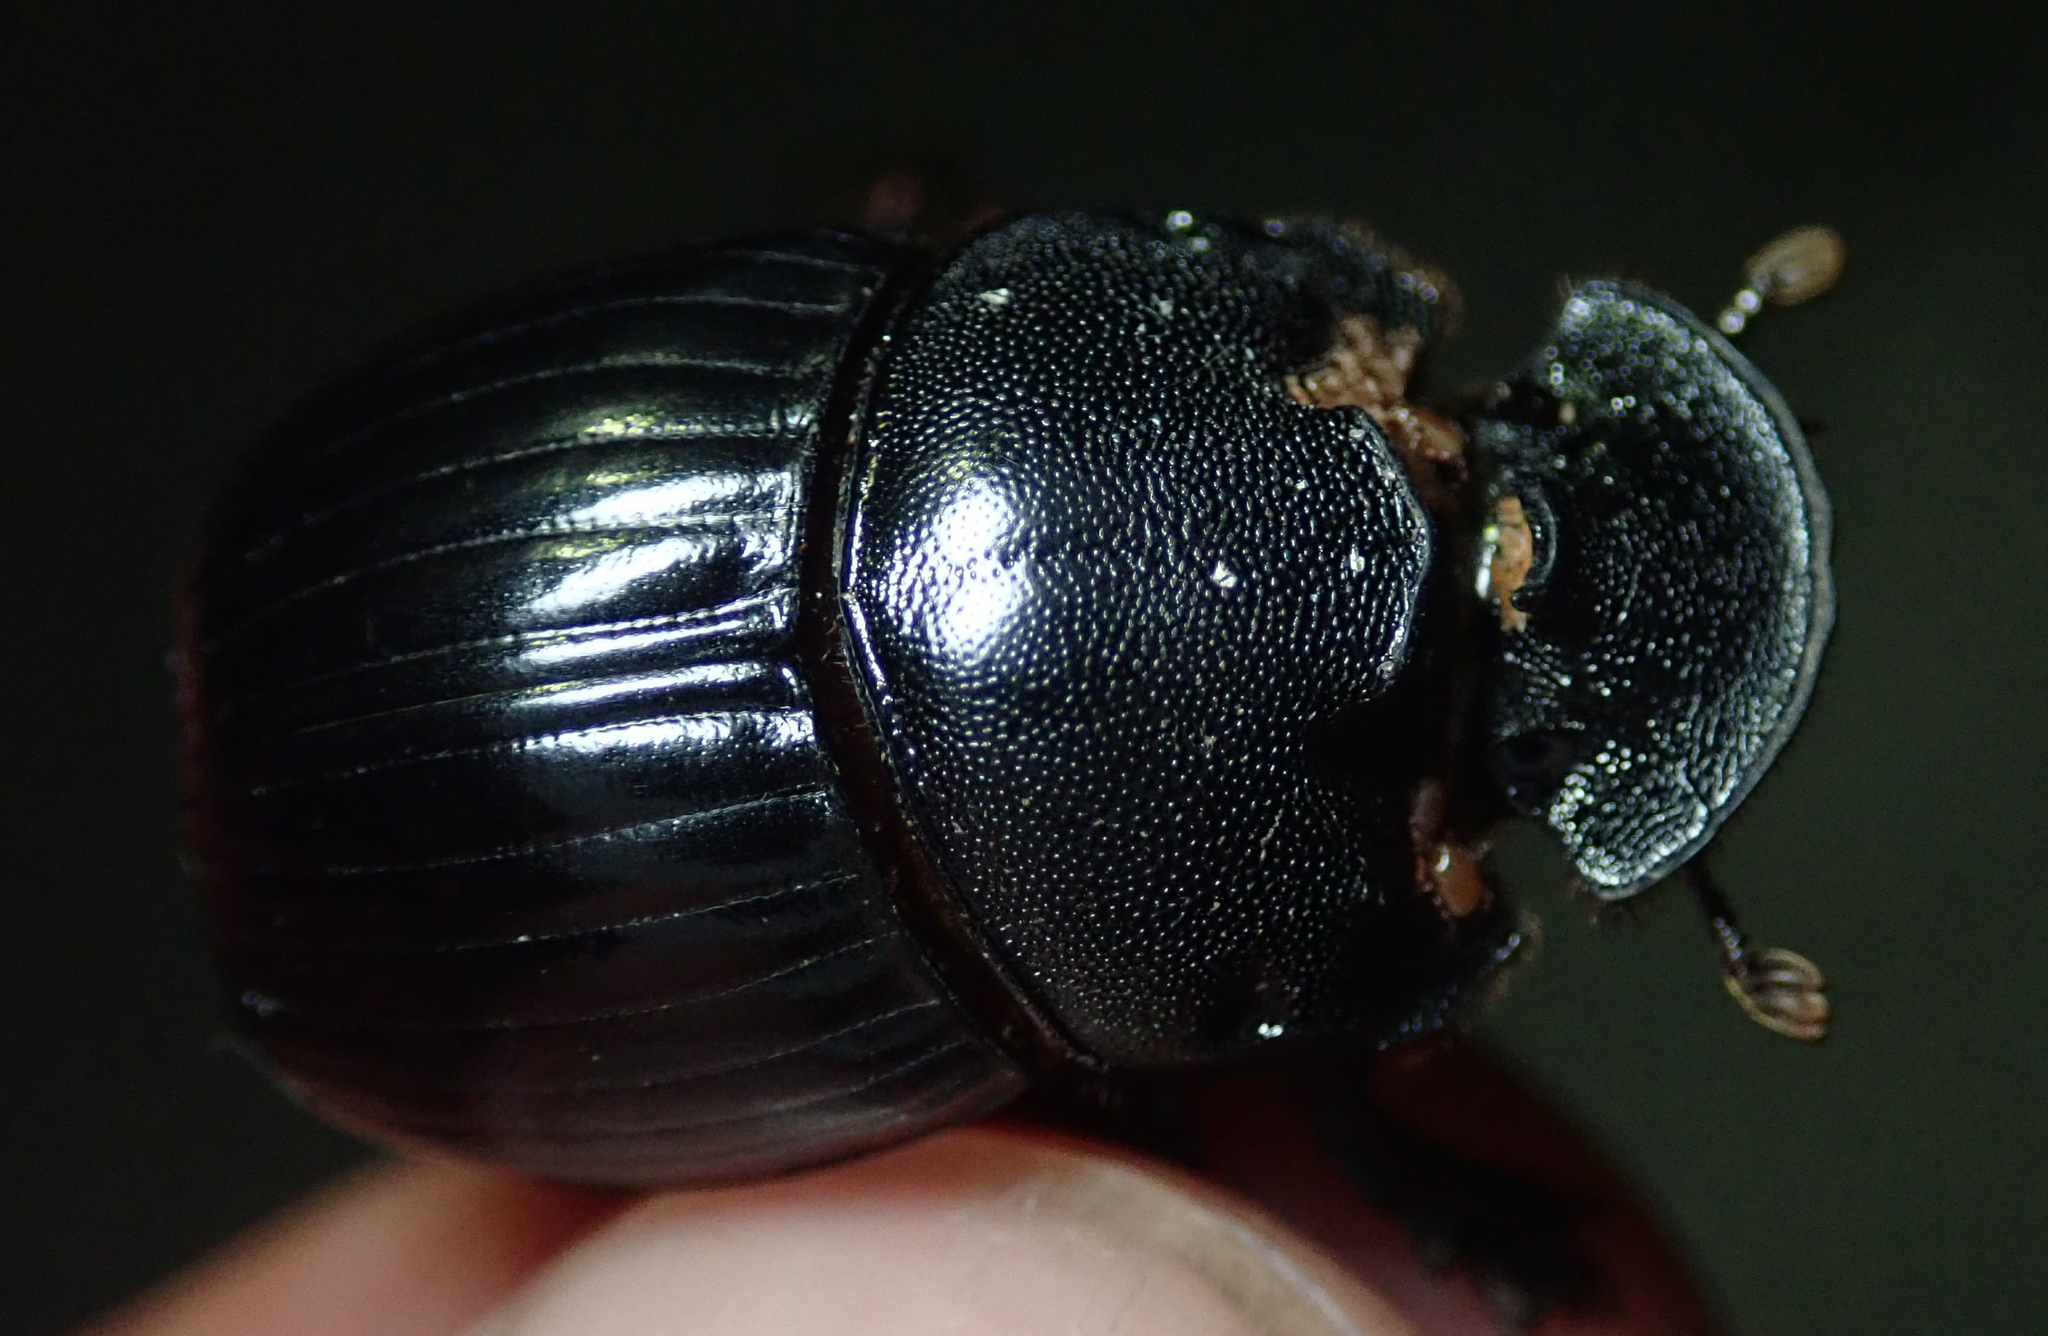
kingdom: Animalia
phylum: Arthropoda
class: Insecta
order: Coleoptera
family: Scarabaeidae
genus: Copris
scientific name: Copris elphenor
